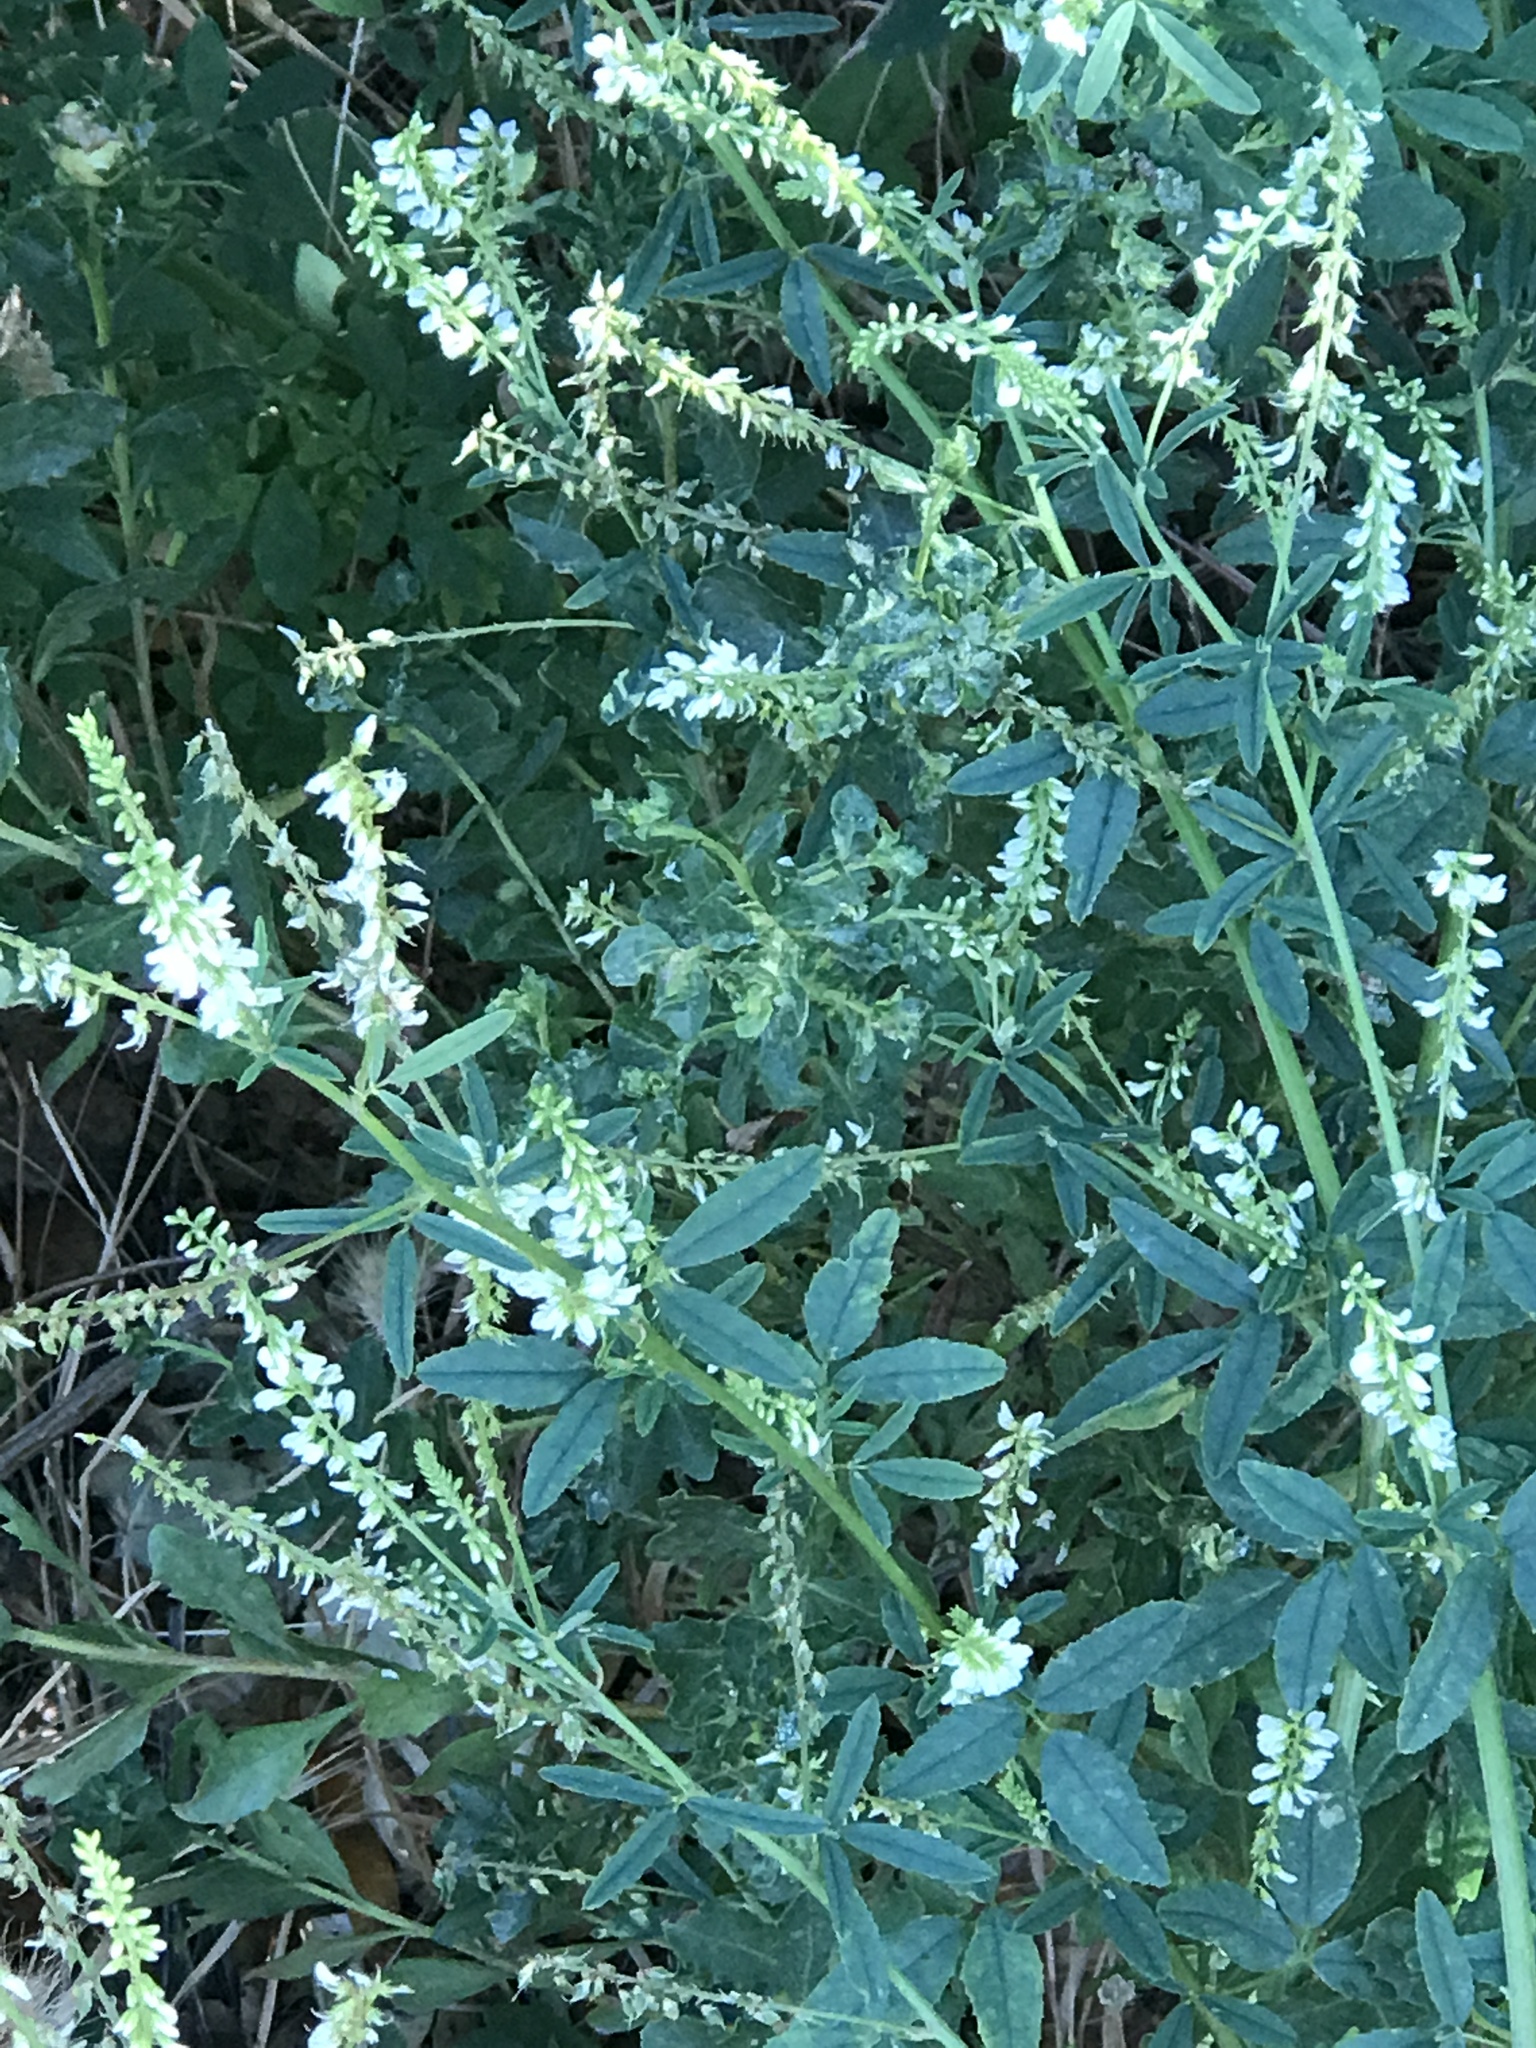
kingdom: Plantae
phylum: Tracheophyta
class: Magnoliopsida
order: Fabales
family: Fabaceae
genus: Melilotus
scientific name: Melilotus albus
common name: White melilot
